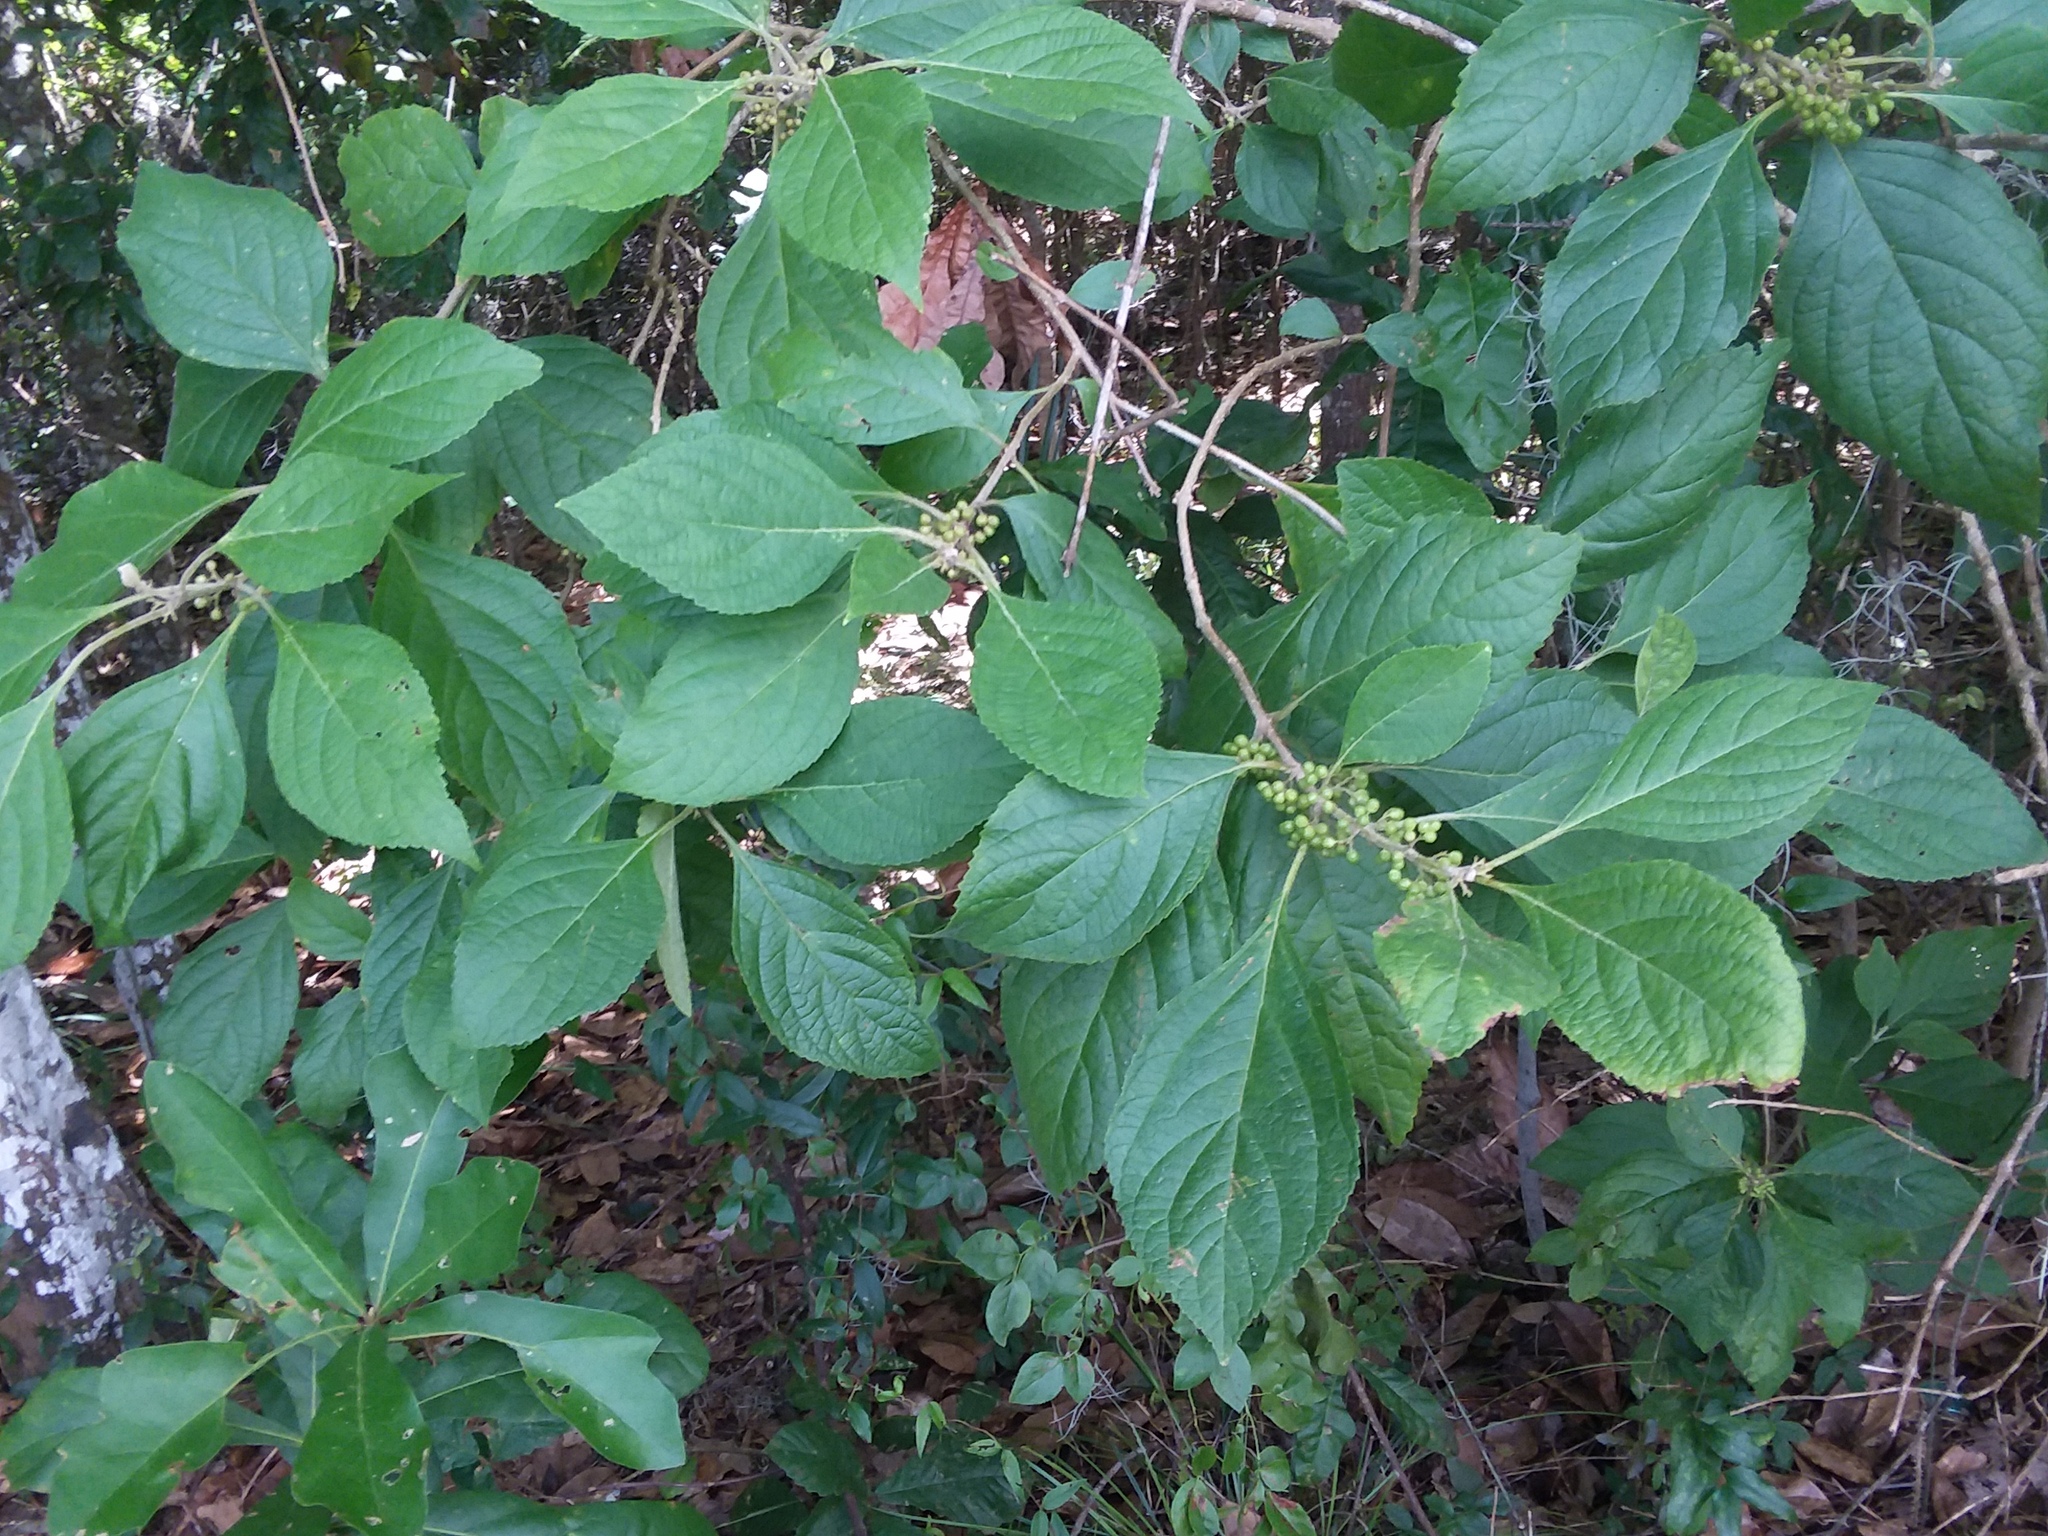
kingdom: Plantae
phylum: Tracheophyta
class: Magnoliopsida
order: Lamiales
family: Lamiaceae
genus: Callicarpa
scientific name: Callicarpa americana
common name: American beautyberry
